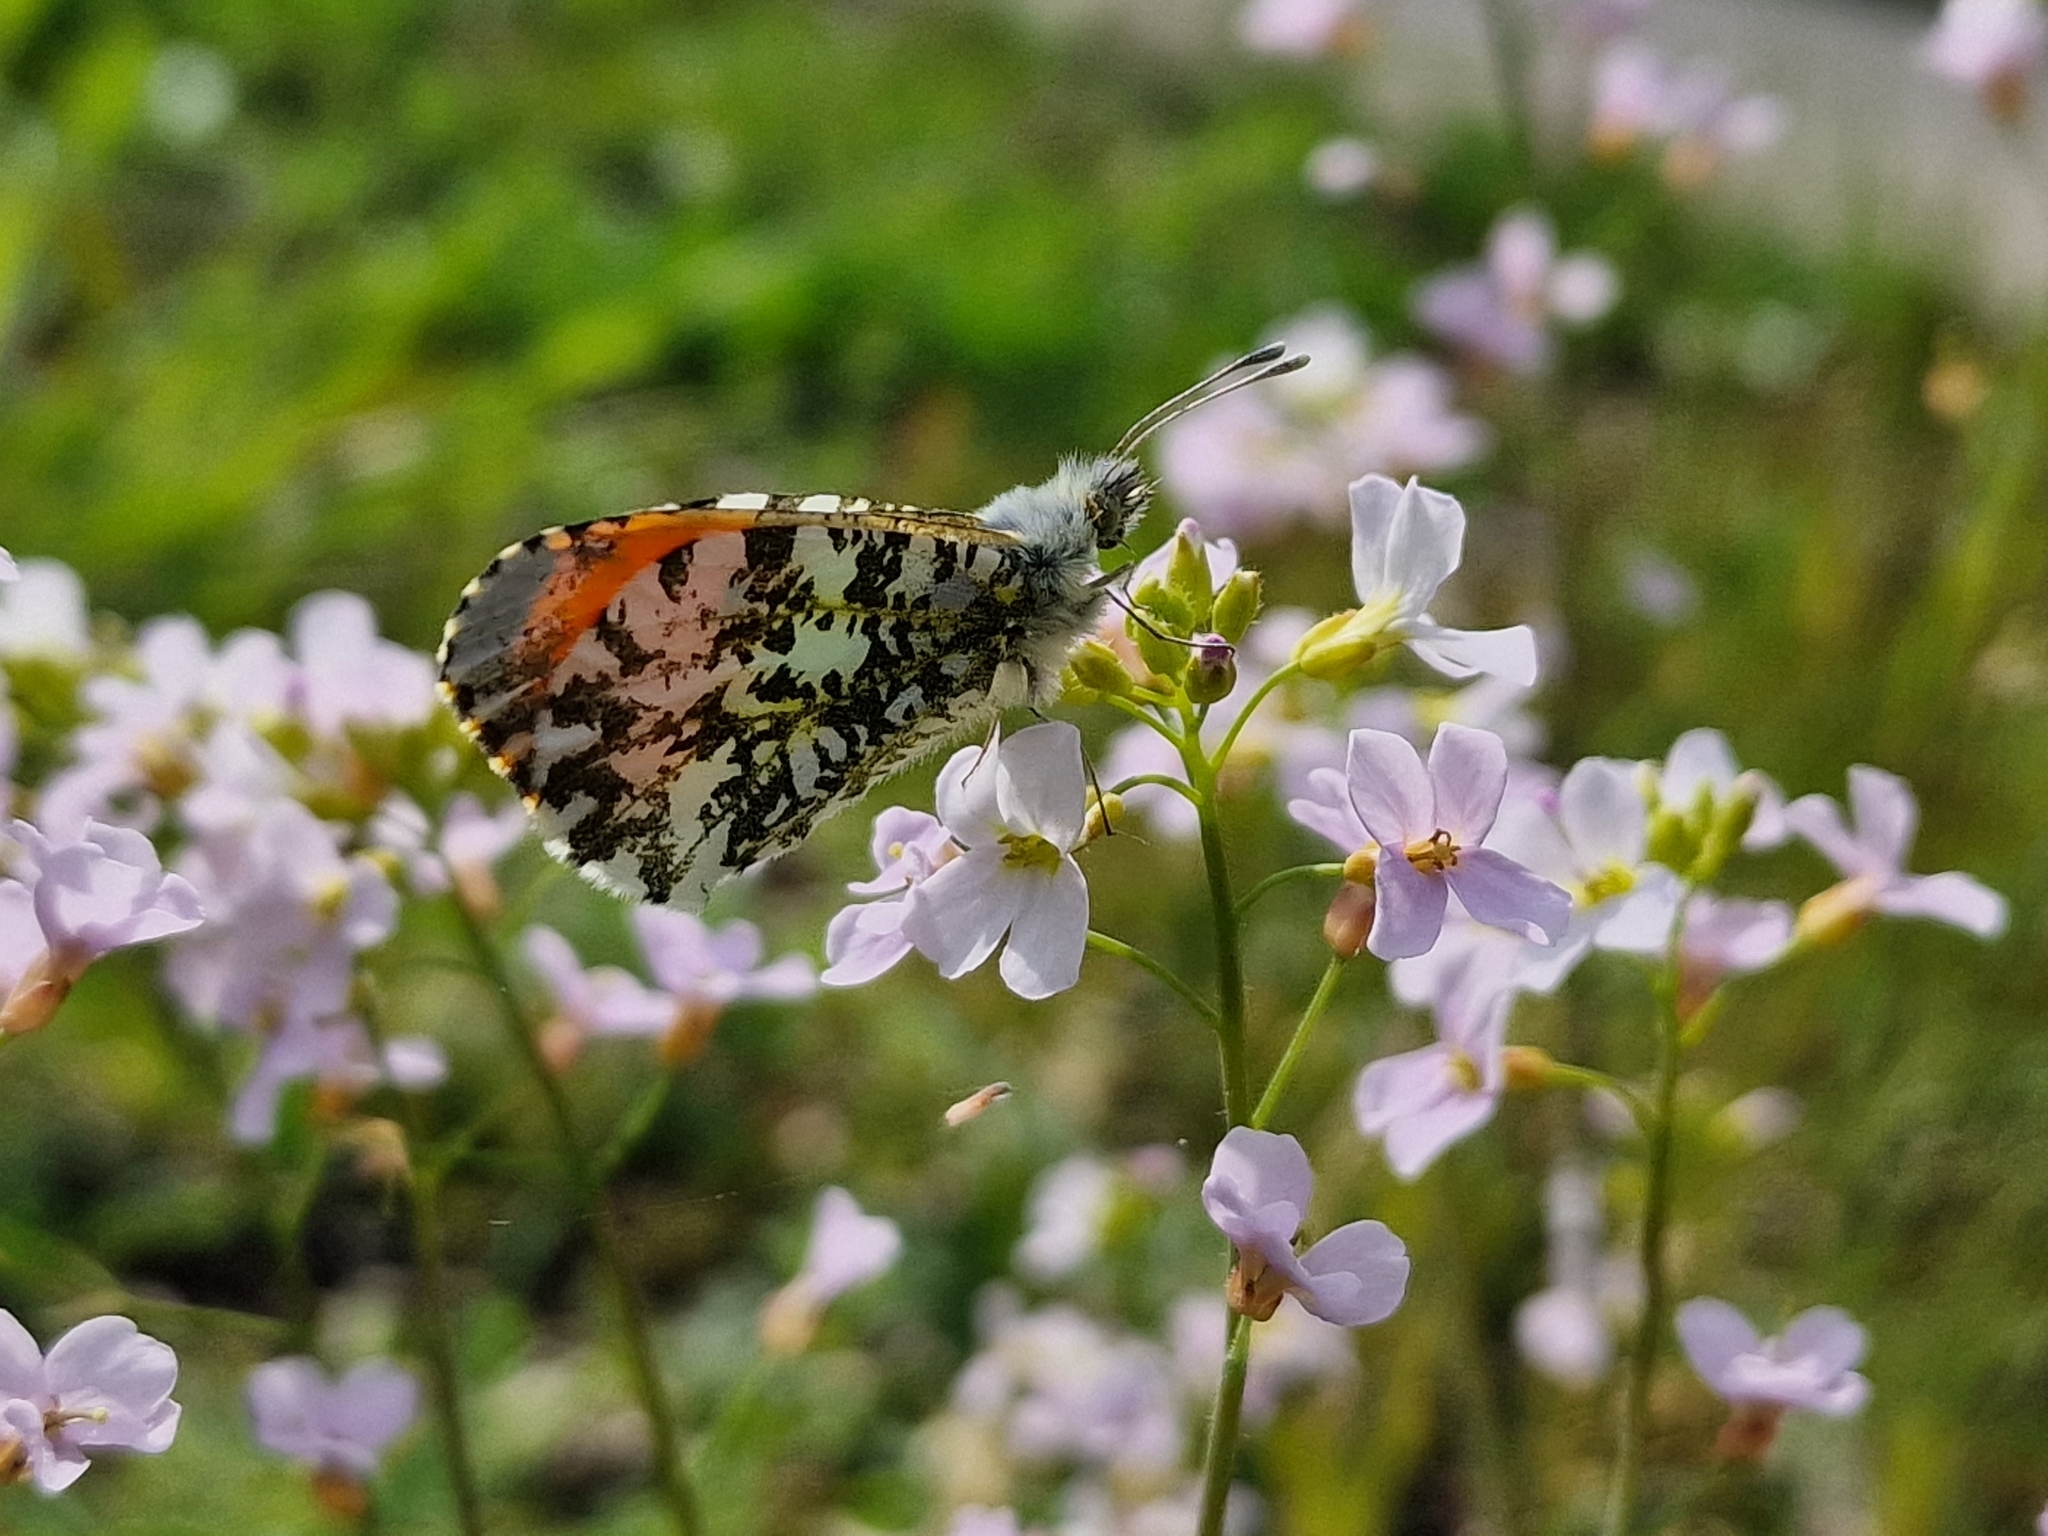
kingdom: Animalia
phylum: Arthropoda
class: Insecta
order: Lepidoptera
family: Pieridae
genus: Anthocharis
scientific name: Anthocharis cardamines
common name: Orange-tip
